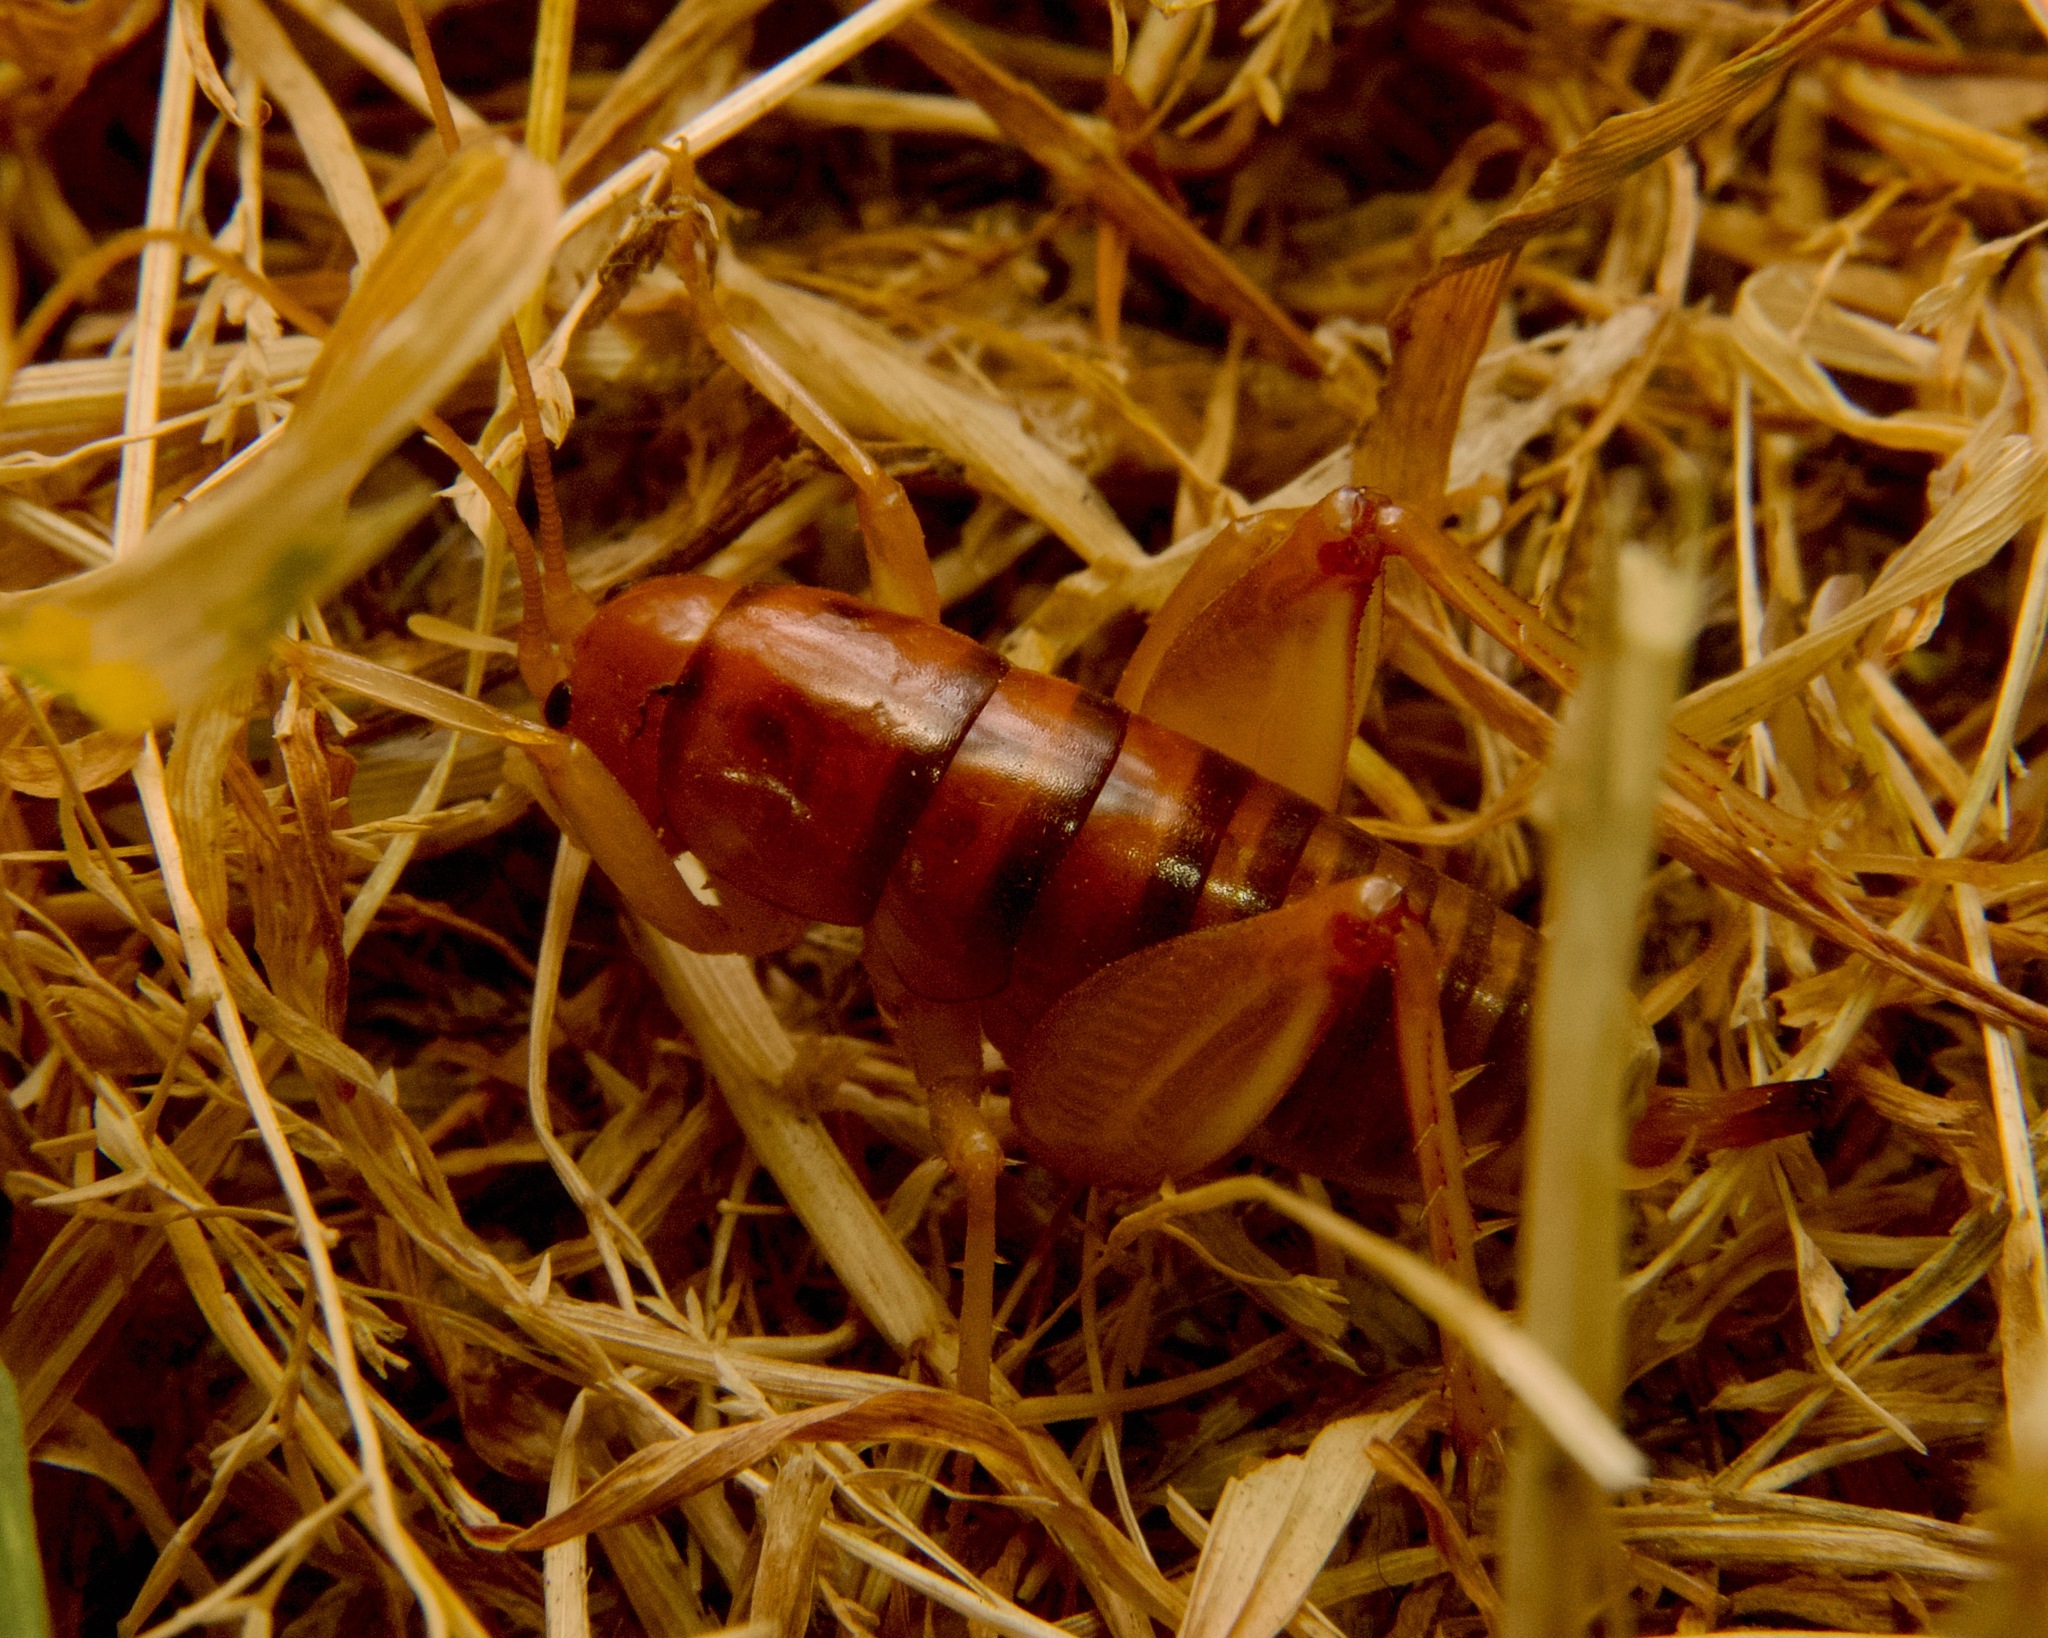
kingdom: Animalia
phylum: Arthropoda
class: Insecta
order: Orthoptera
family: Rhaphidophoridae
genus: Ceuthophilus
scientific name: Ceuthophilus californianus
